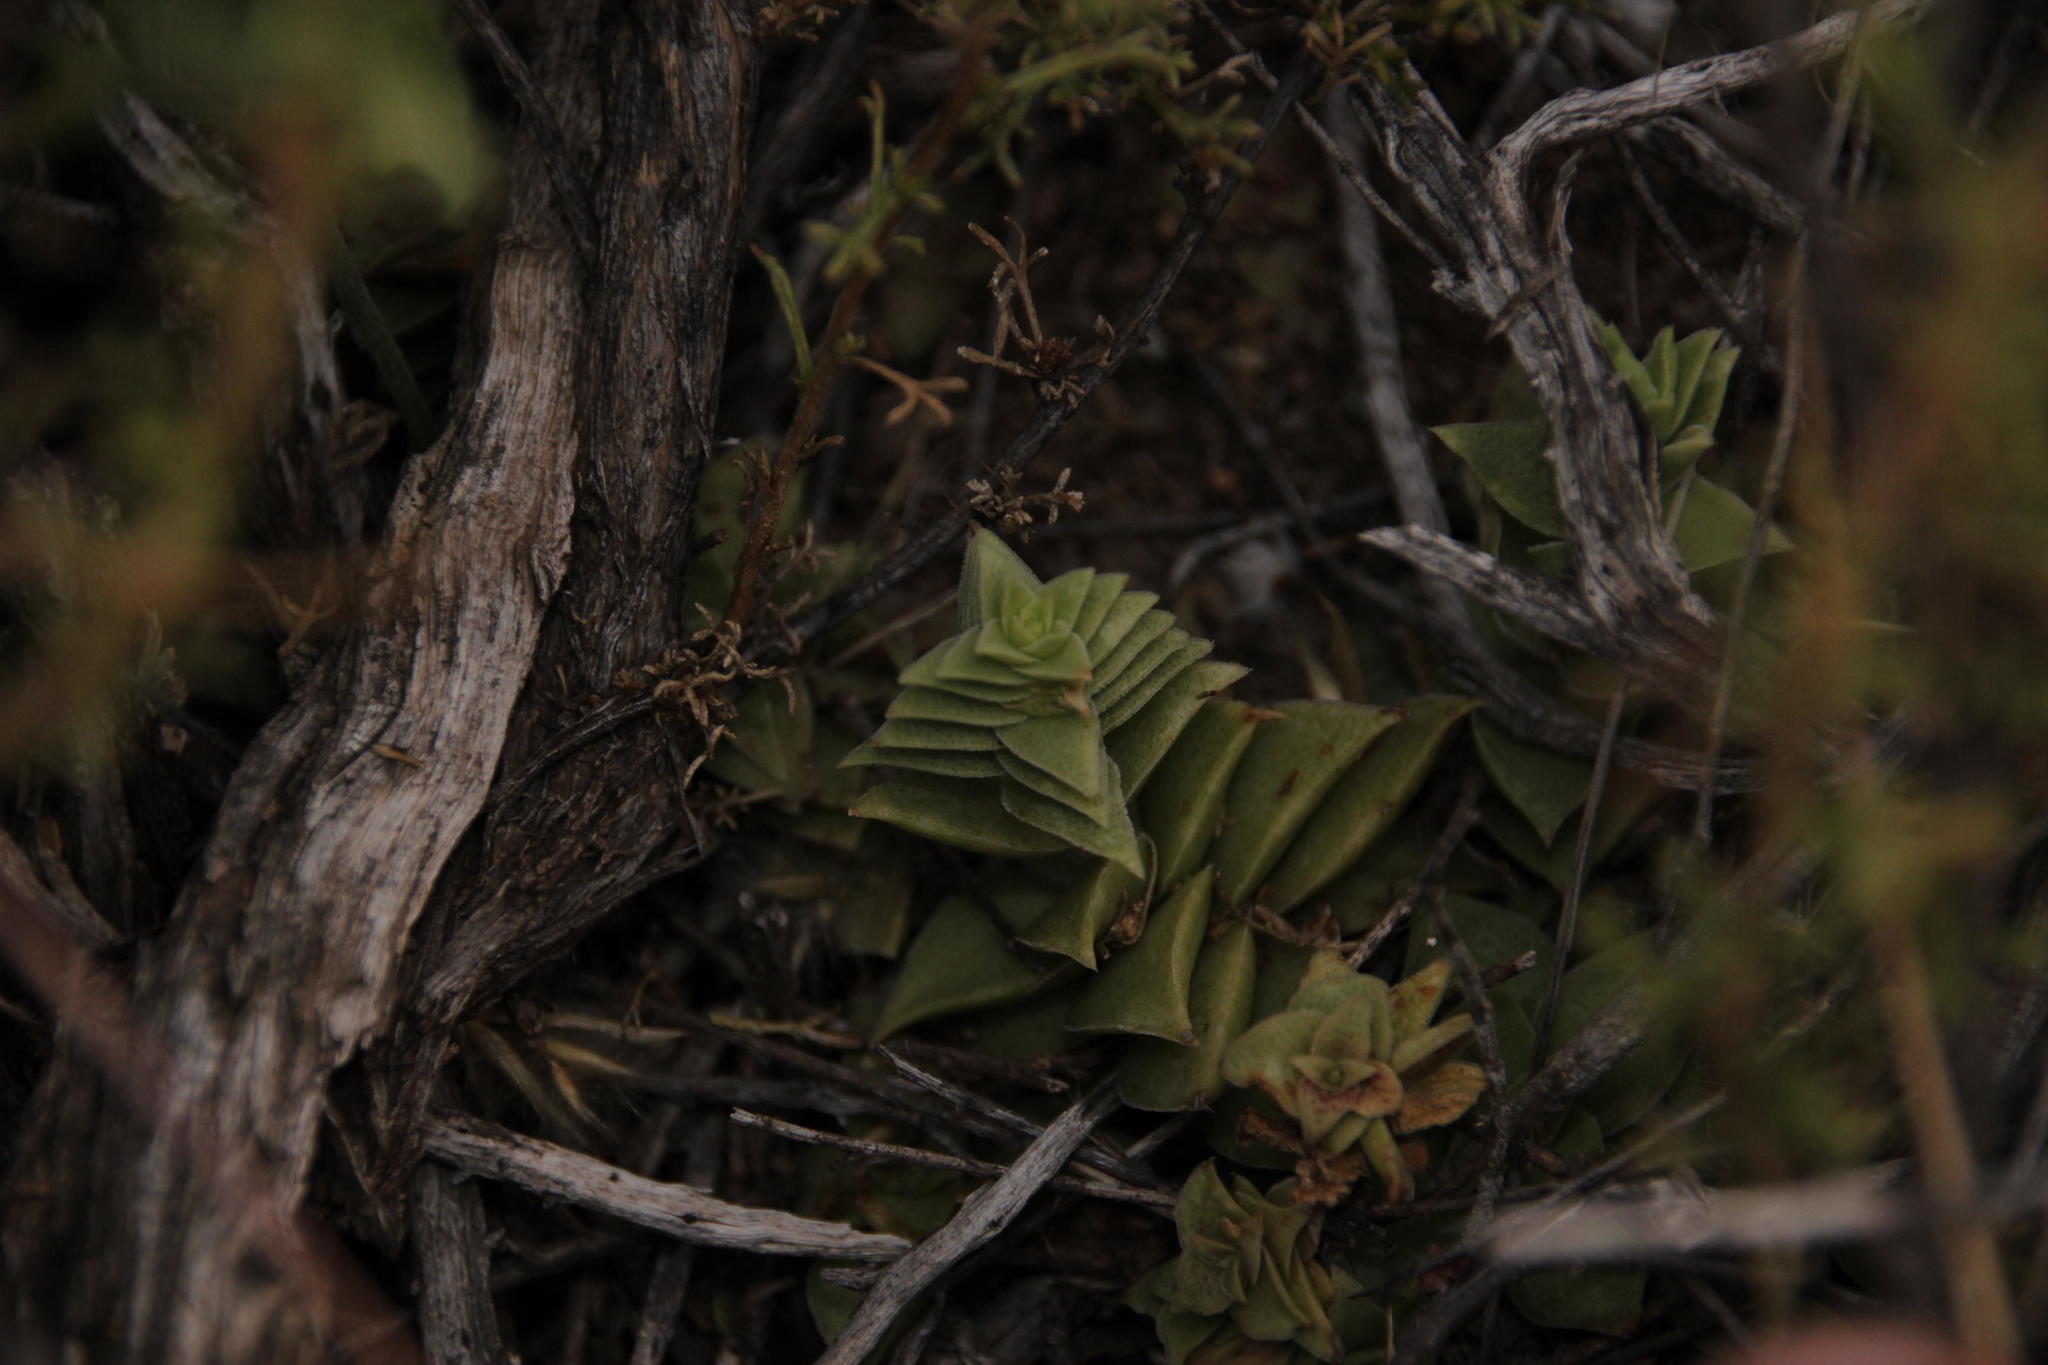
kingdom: Plantae
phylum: Tracheophyta
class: Magnoliopsida
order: Saxifragales
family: Crassulaceae
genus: Crassula
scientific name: Crassula capitella
